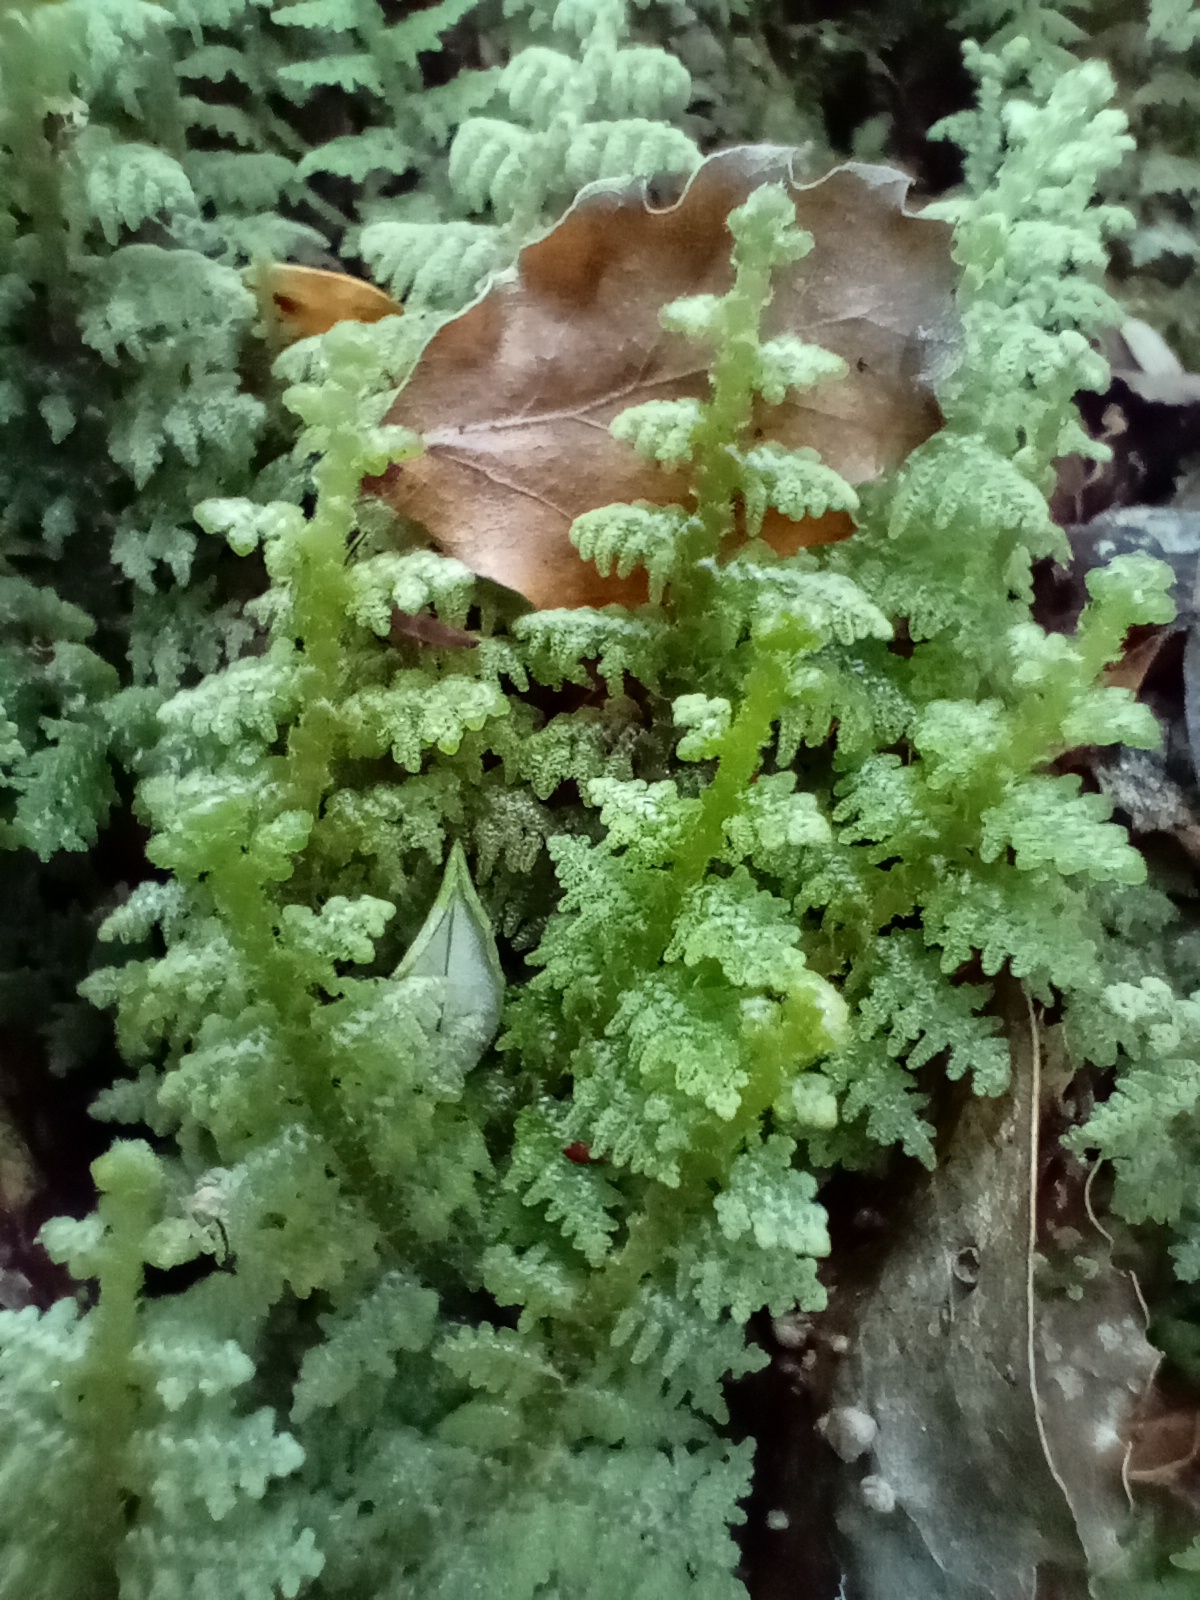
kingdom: Plantae
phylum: Marchantiophyta
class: Jungermanniopsida
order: Jungermanniales
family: Trichocoleaceae
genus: Trichocolea
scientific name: Trichocolea mollissima
